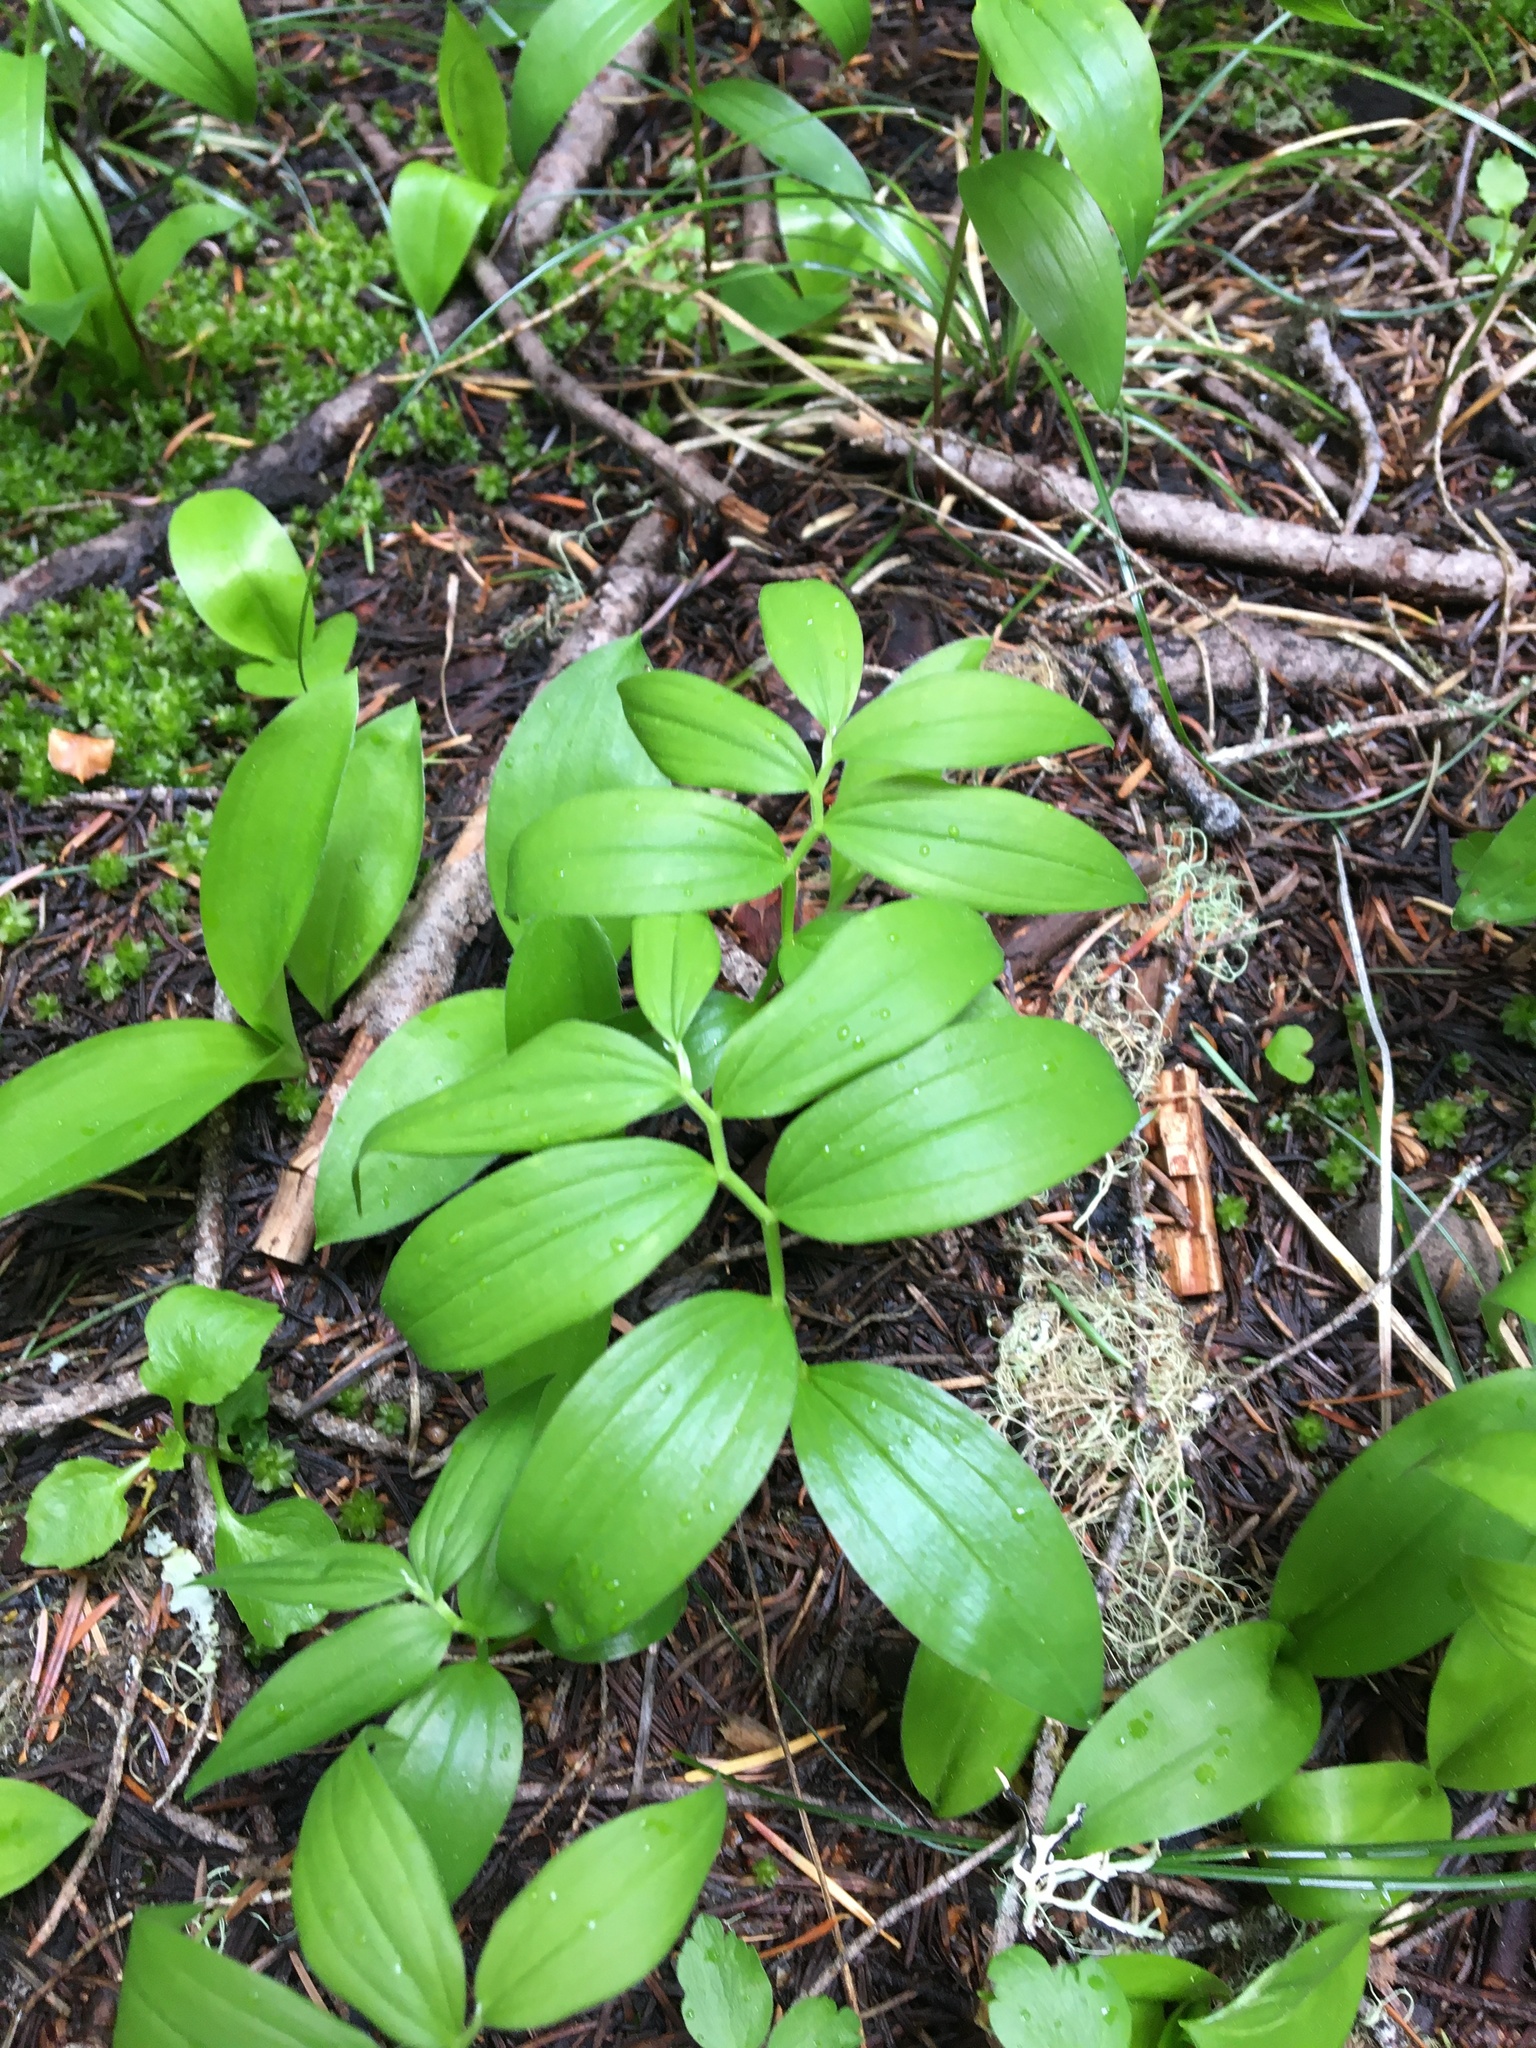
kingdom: Plantae
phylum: Tracheophyta
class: Liliopsida
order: Asparagales
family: Asparagaceae
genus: Maianthemum
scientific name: Maianthemum stellatum
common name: Little false solomon's seal
